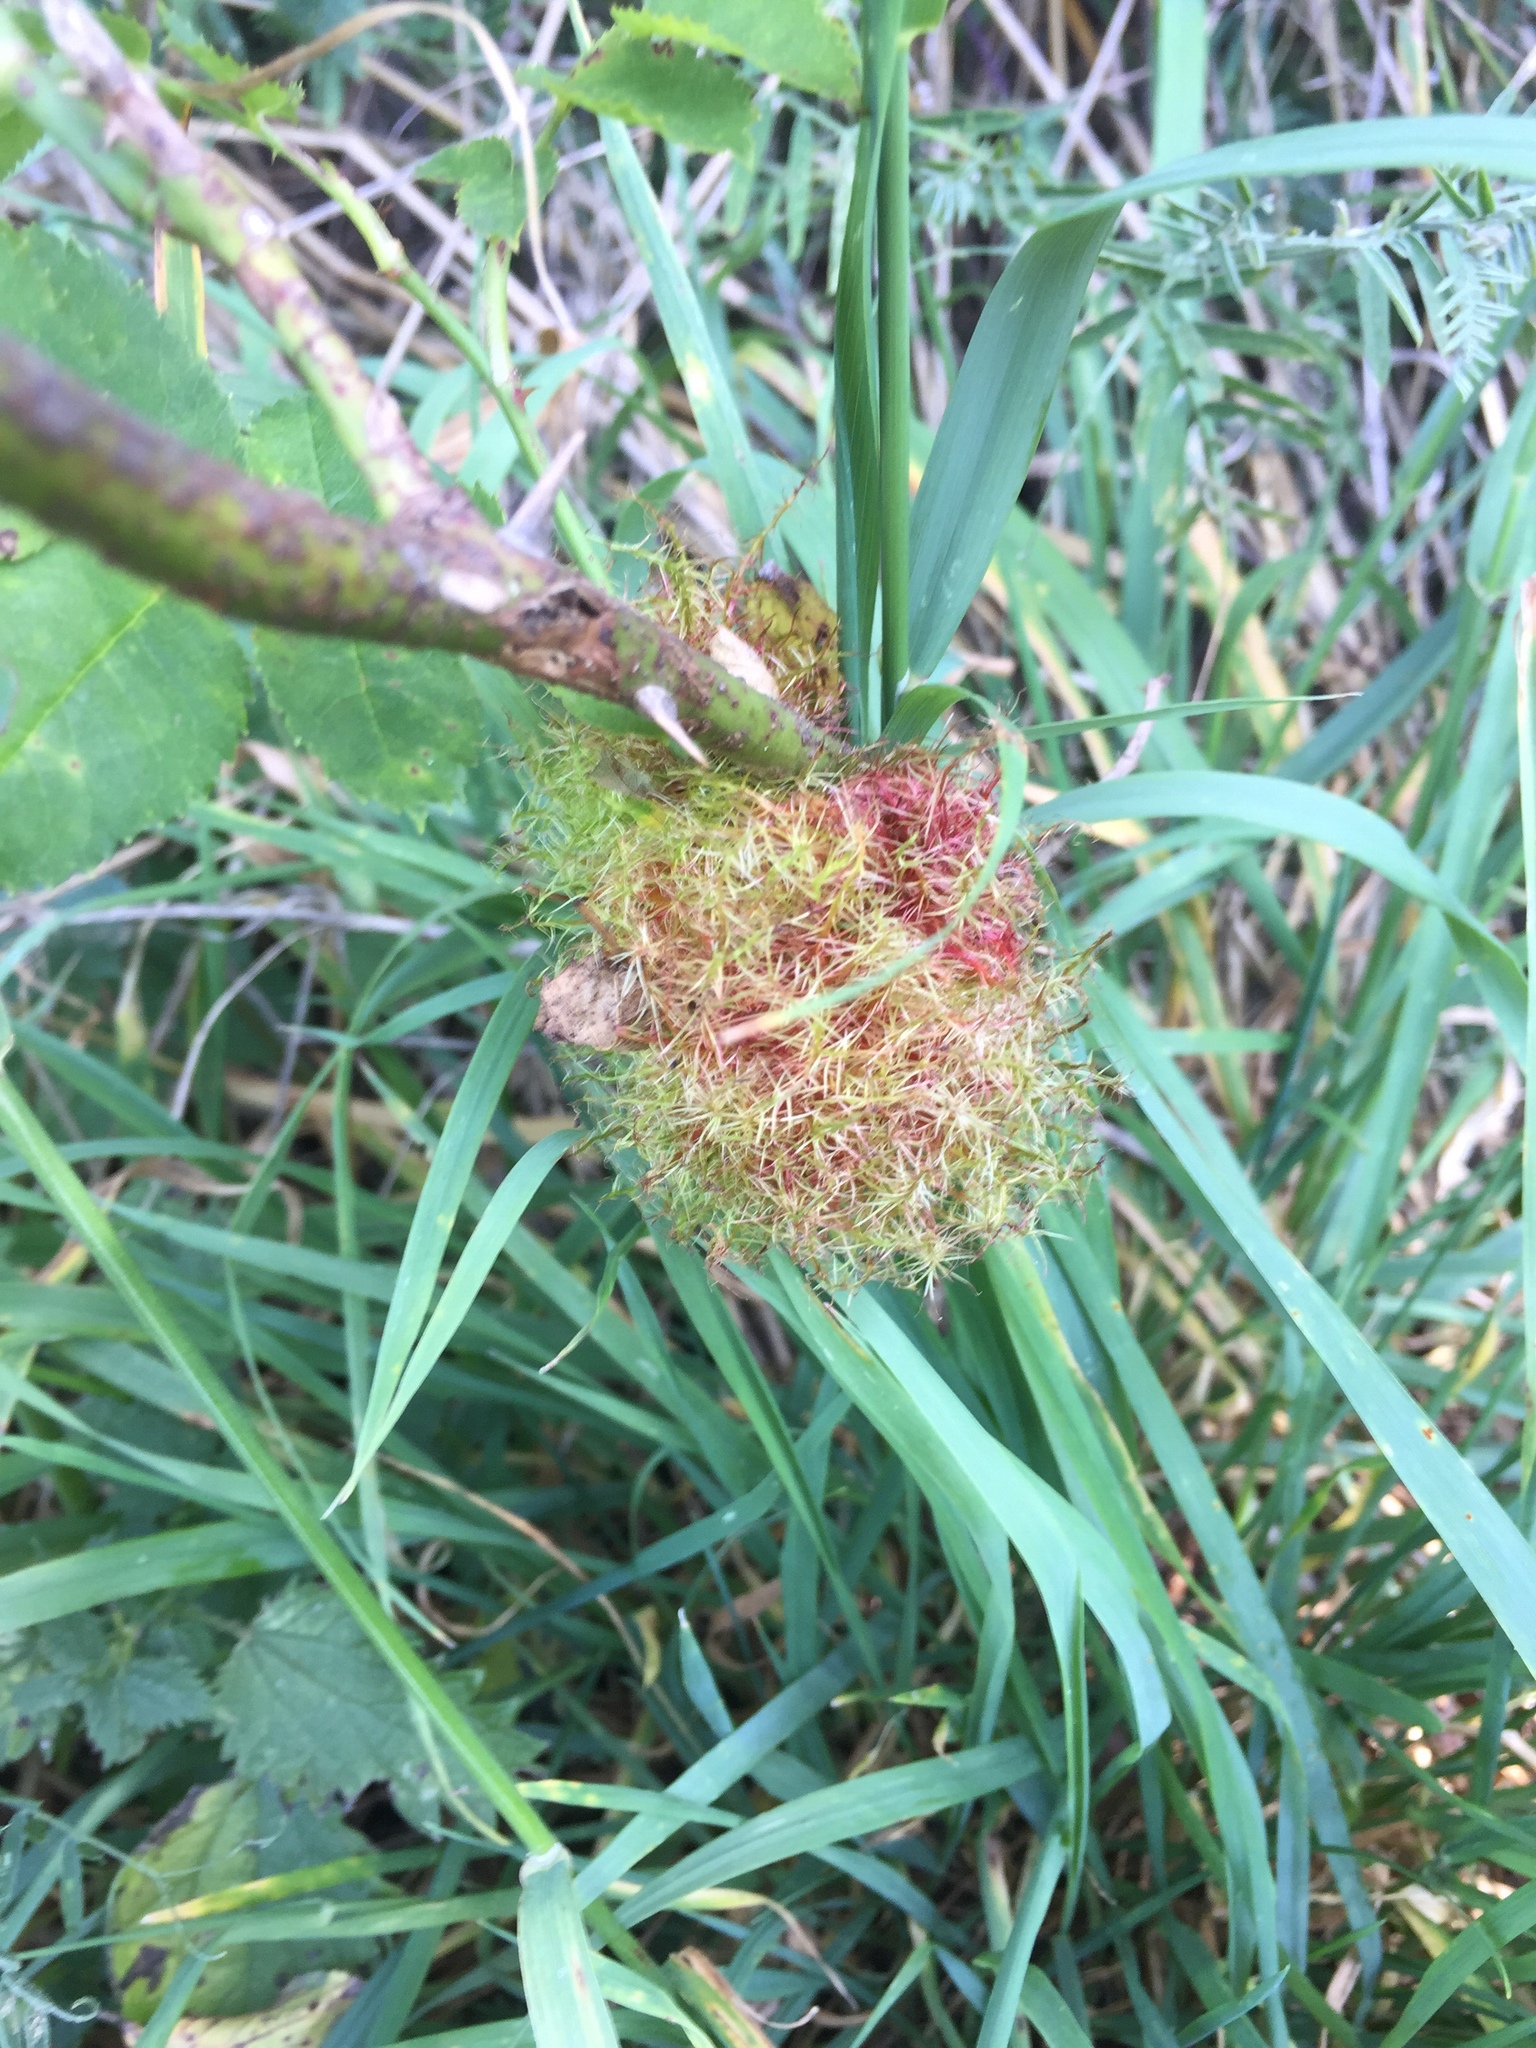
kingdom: Animalia
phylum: Arthropoda
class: Insecta
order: Hymenoptera
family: Cynipidae
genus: Diplolepis
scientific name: Diplolepis rosae
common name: Bedeguar gall
